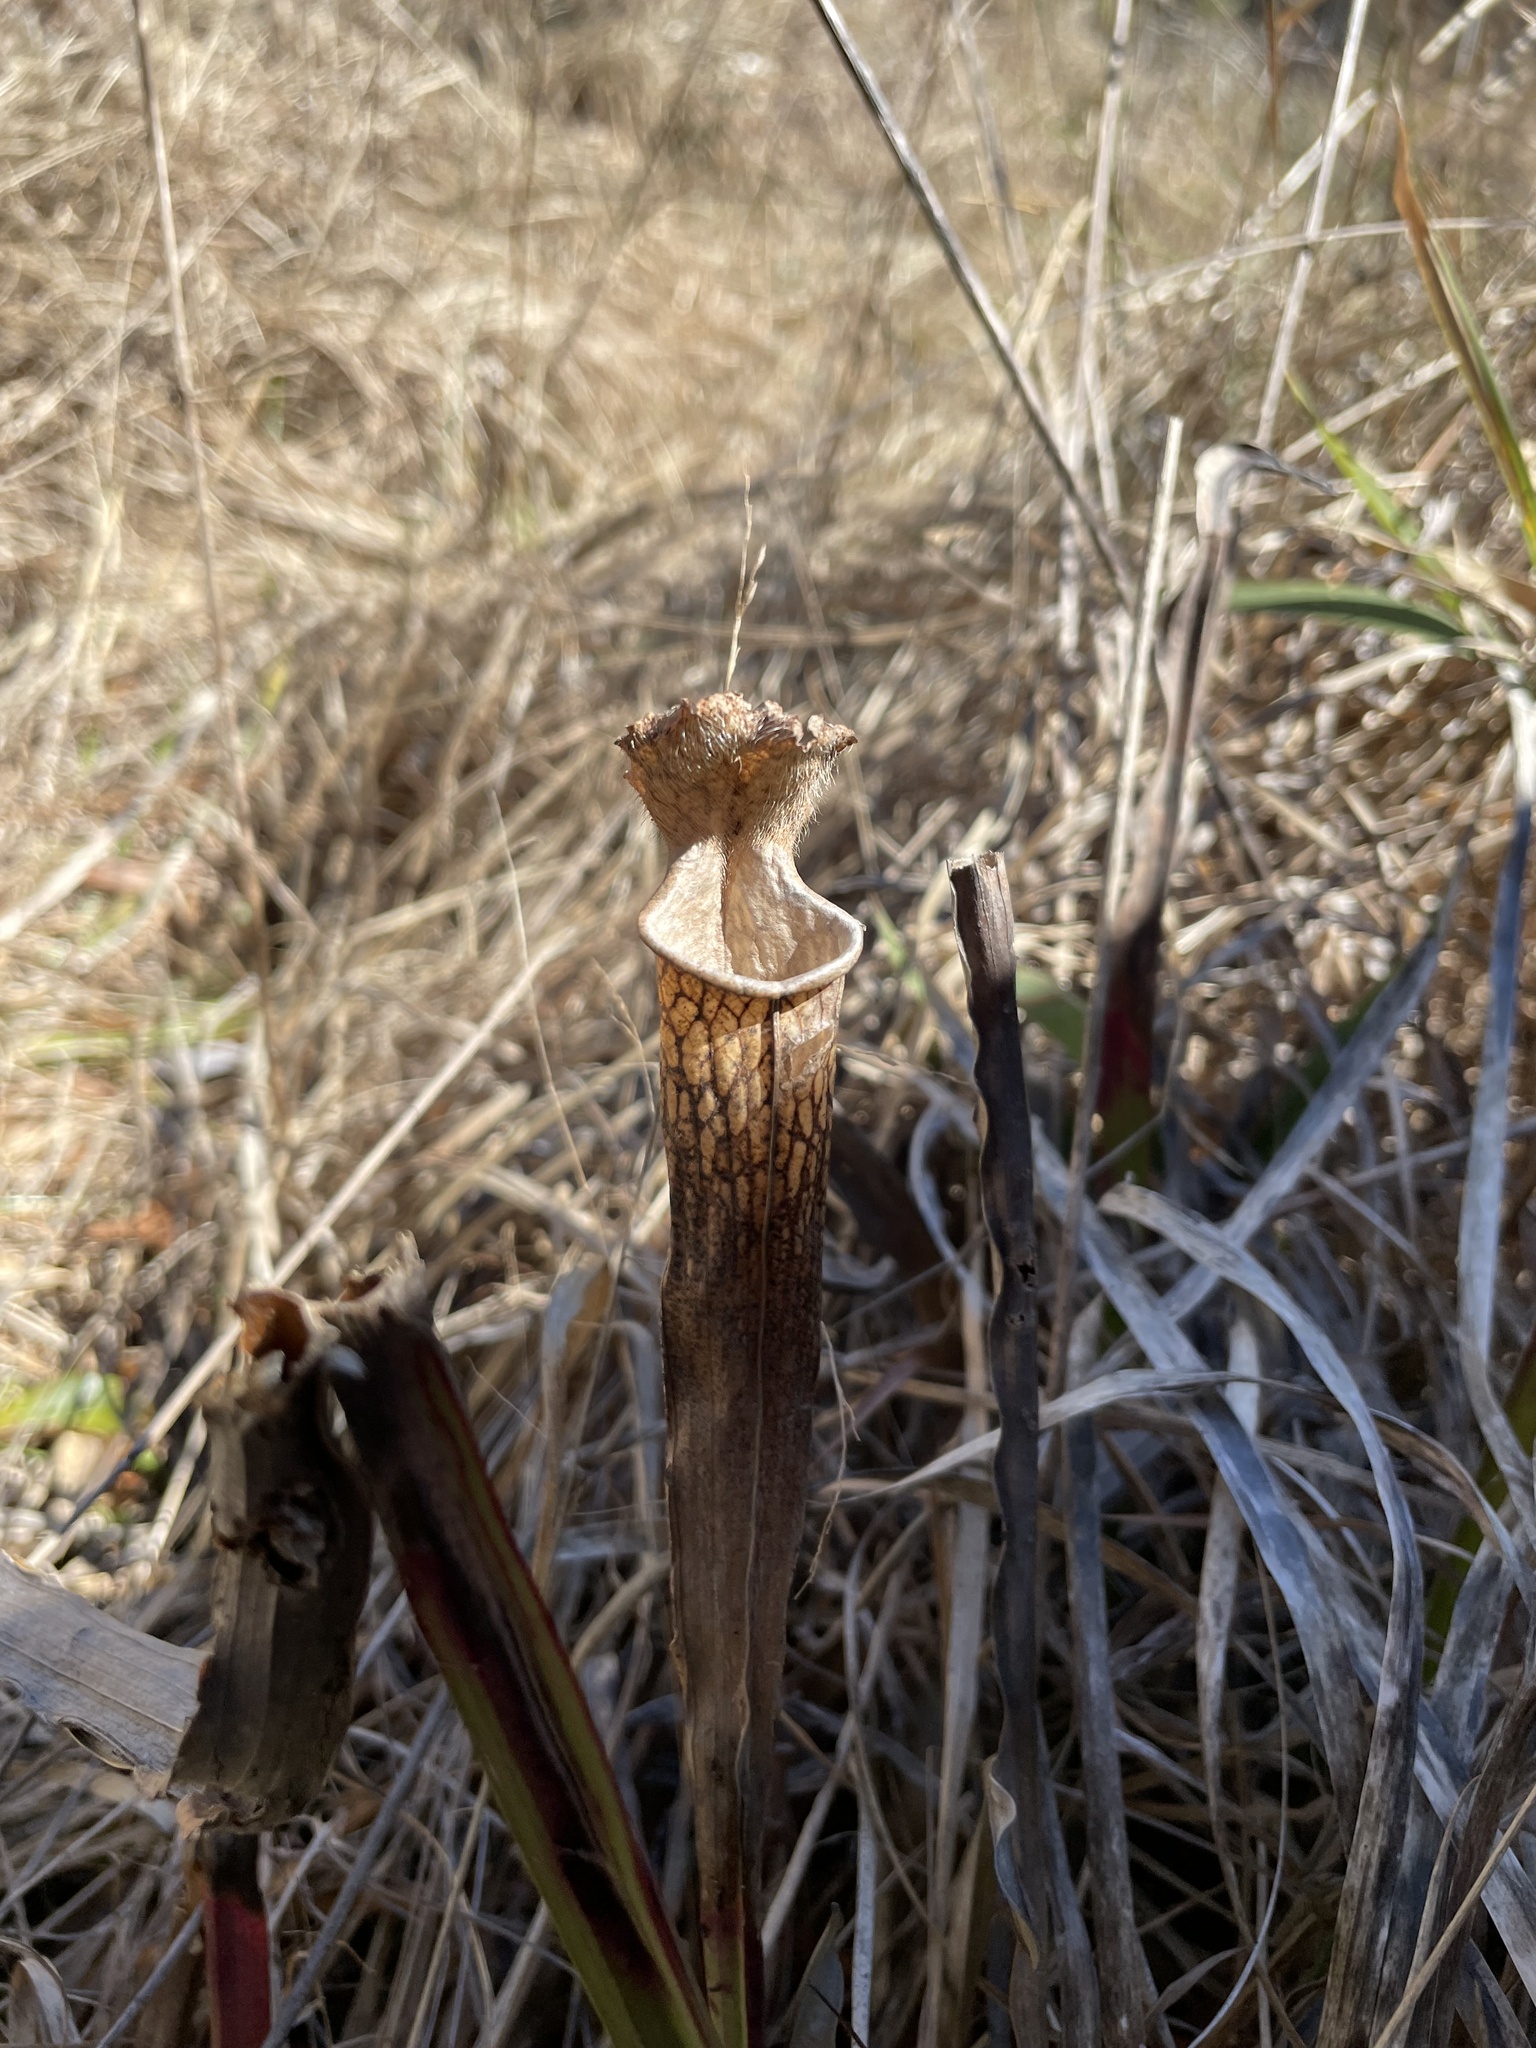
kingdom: Plantae
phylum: Tracheophyta
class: Magnoliopsida
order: Ericales
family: Sarraceniaceae
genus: Sarracenia
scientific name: Sarracenia leucophylla
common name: Purple trumpetleaf
